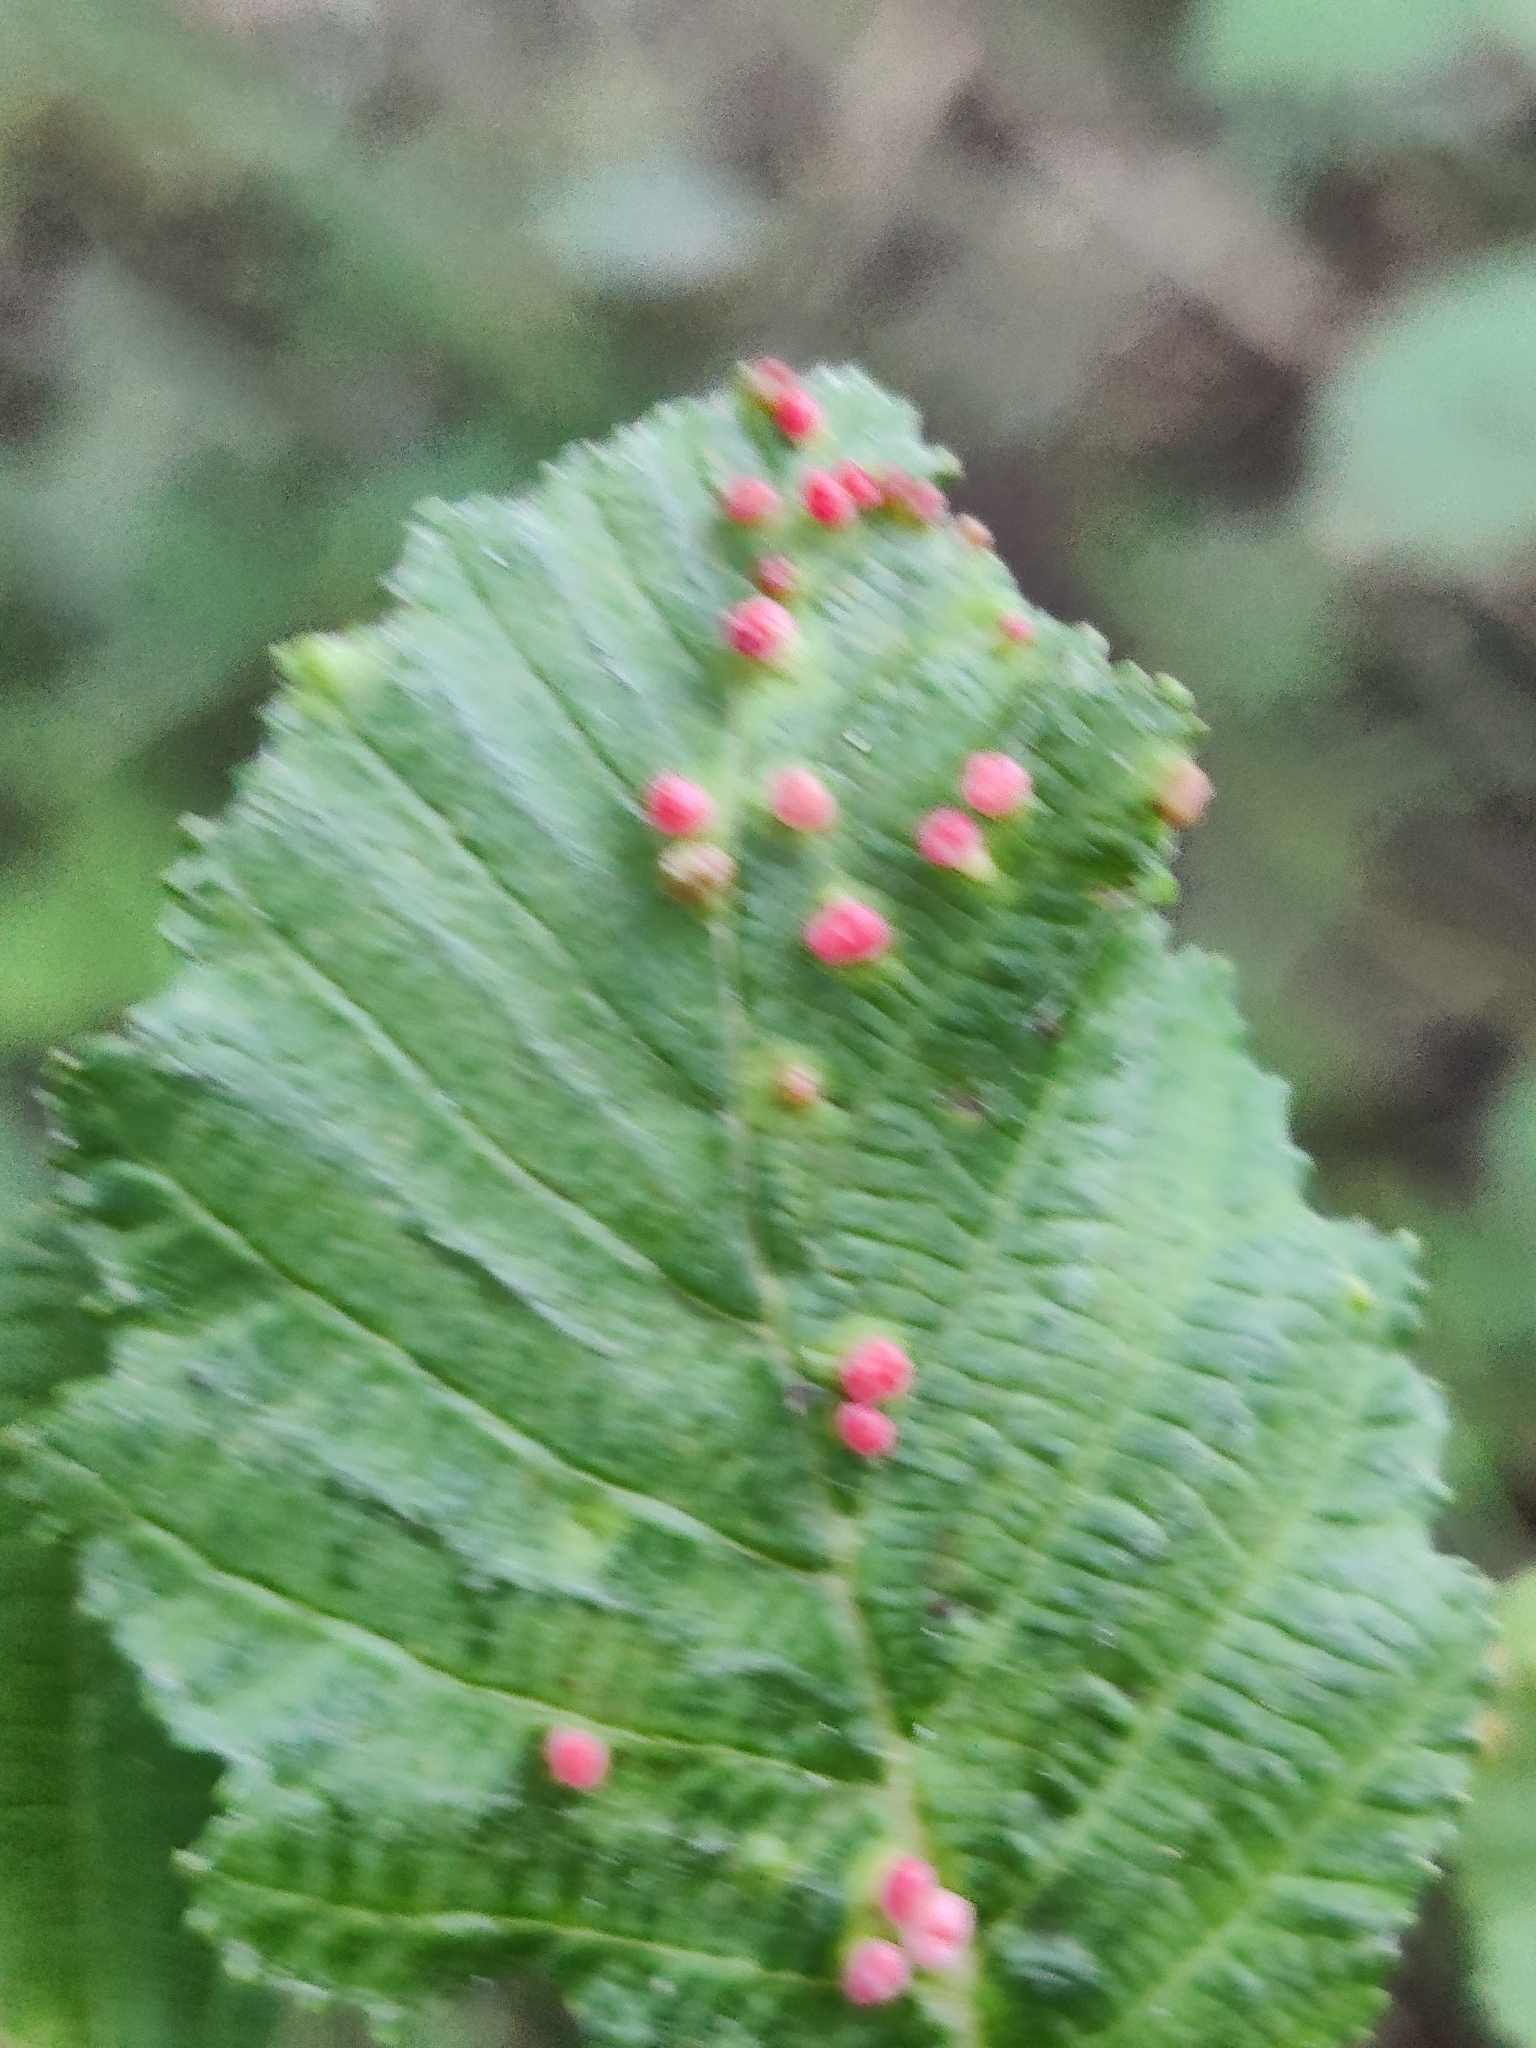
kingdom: Animalia
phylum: Arthropoda
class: Arachnida
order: Trombidiformes
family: Eriophyidae
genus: Eriophyes
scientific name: Eriophyes laevis
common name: Alder leaf gall mite
